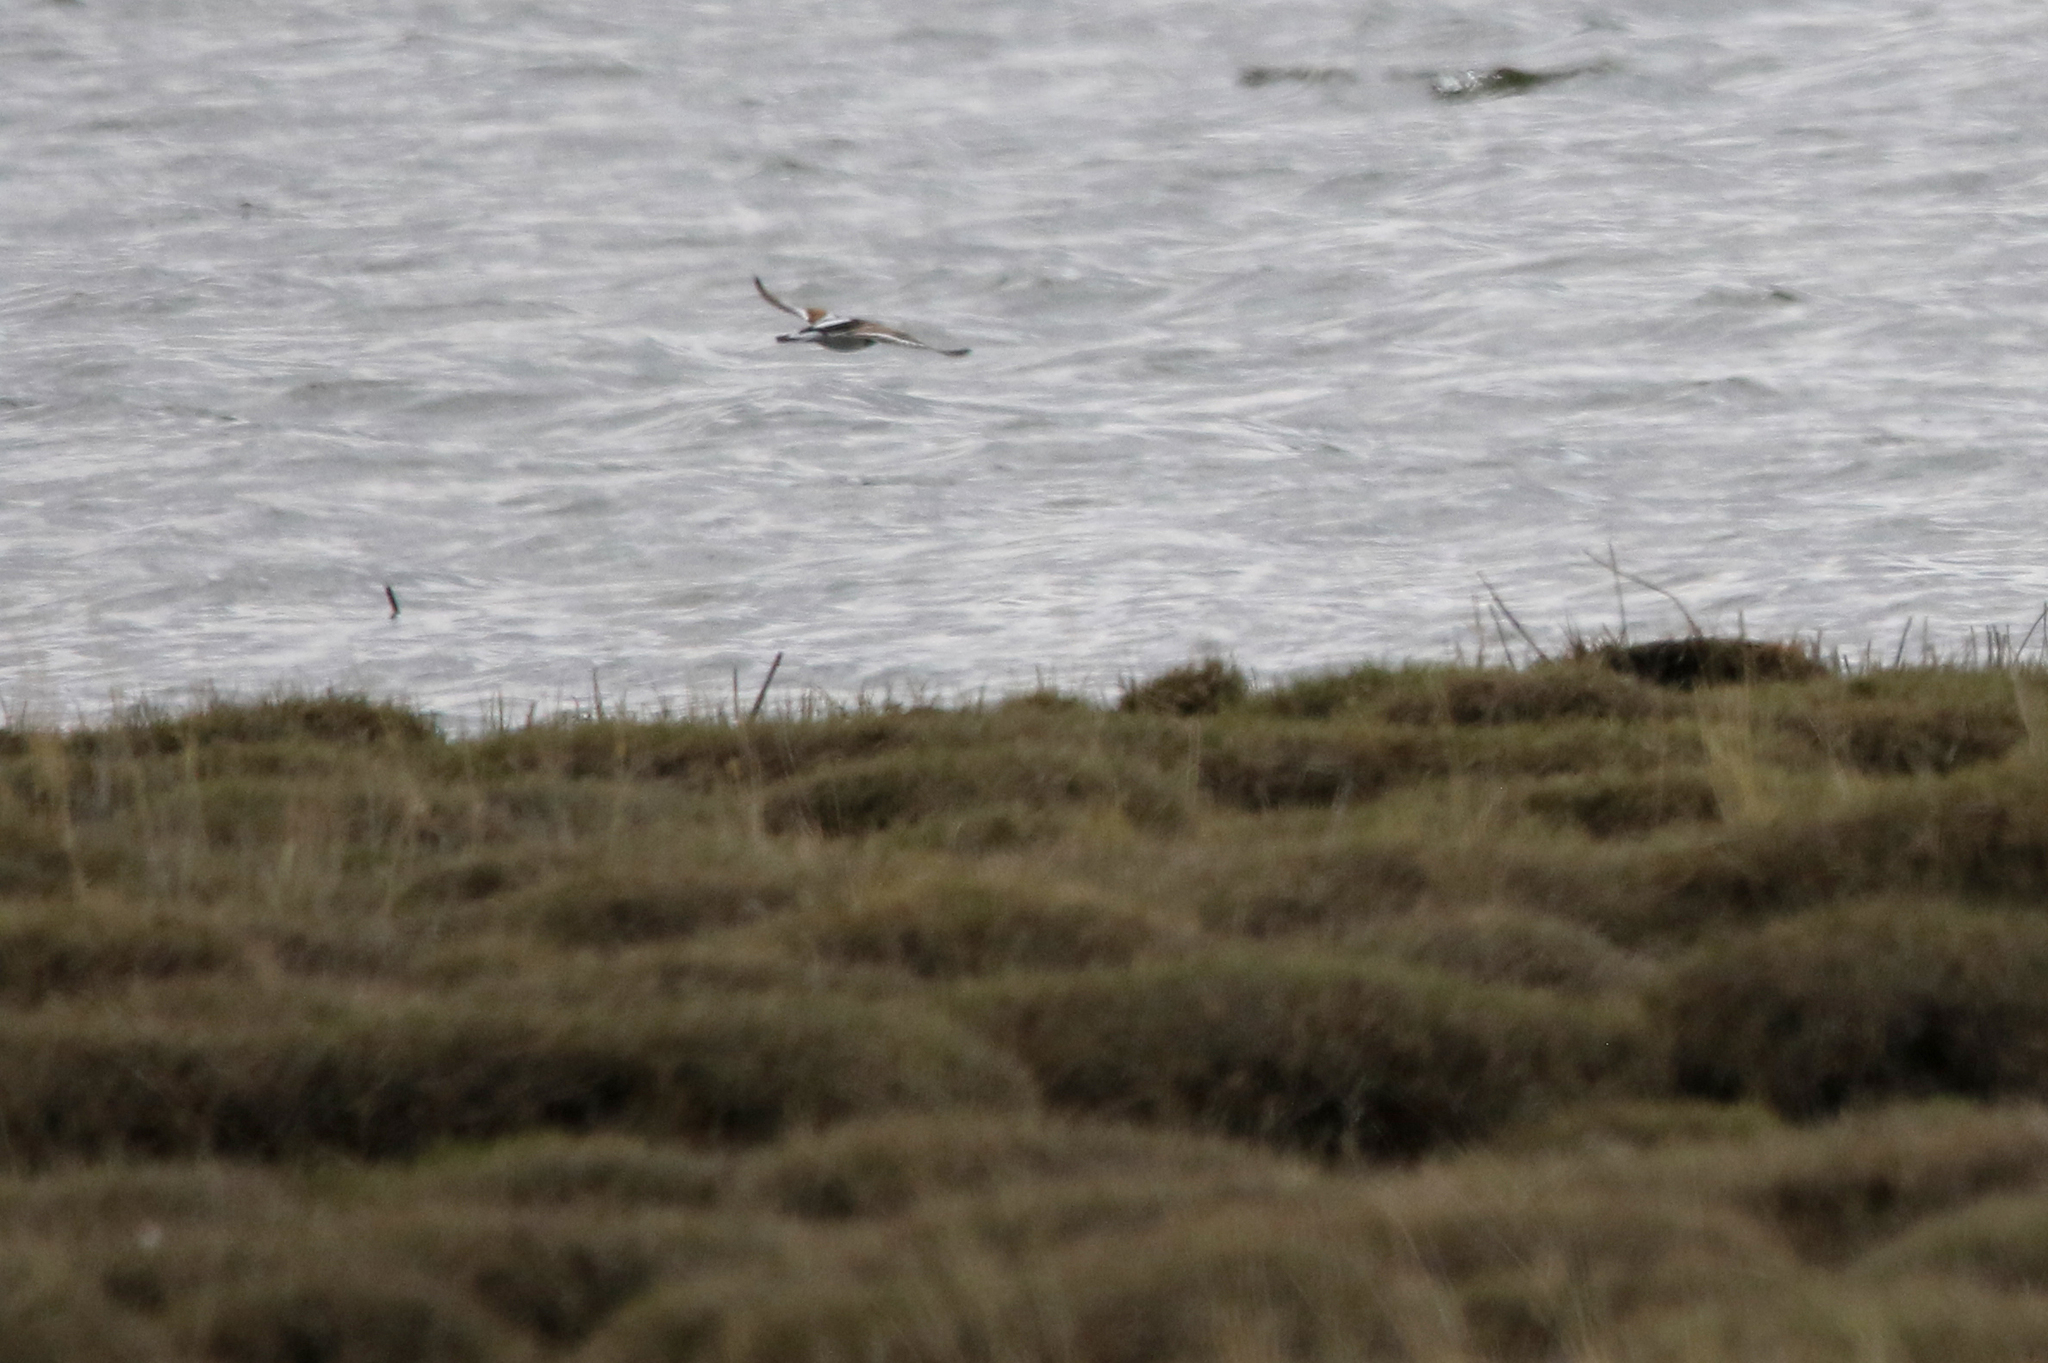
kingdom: Animalia
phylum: Chordata
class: Aves
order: Charadriiformes
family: Scolopacidae
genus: Arenaria
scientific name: Arenaria interpres
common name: Ruddy turnstone
